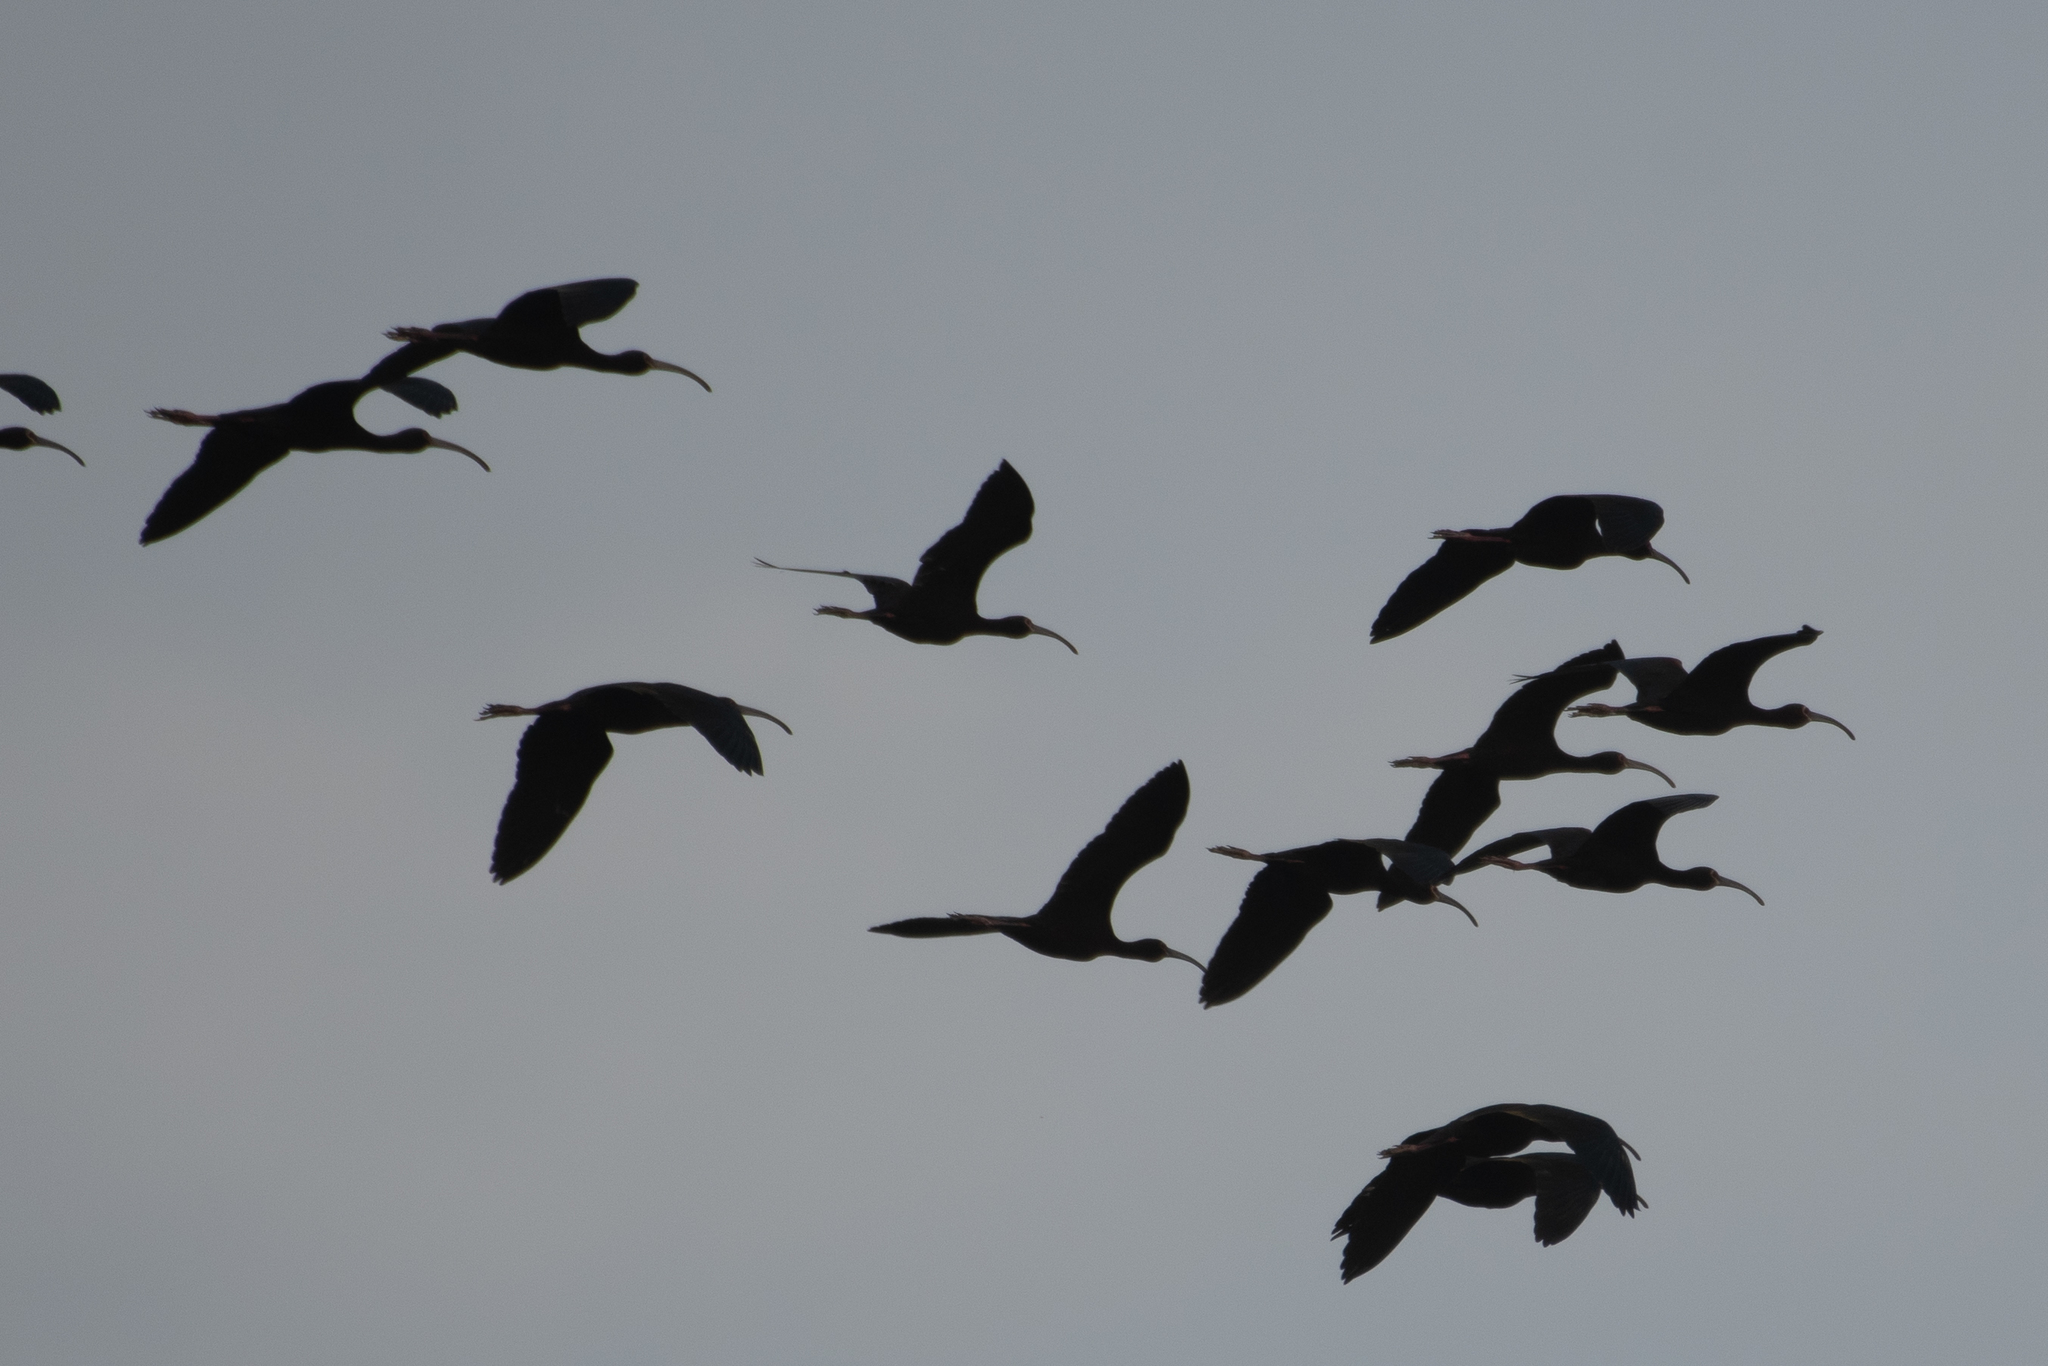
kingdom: Animalia
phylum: Chordata
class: Aves
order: Pelecaniformes
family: Threskiornithidae
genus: Plegadis
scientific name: Plegadis chihi
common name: White-faced ibis
